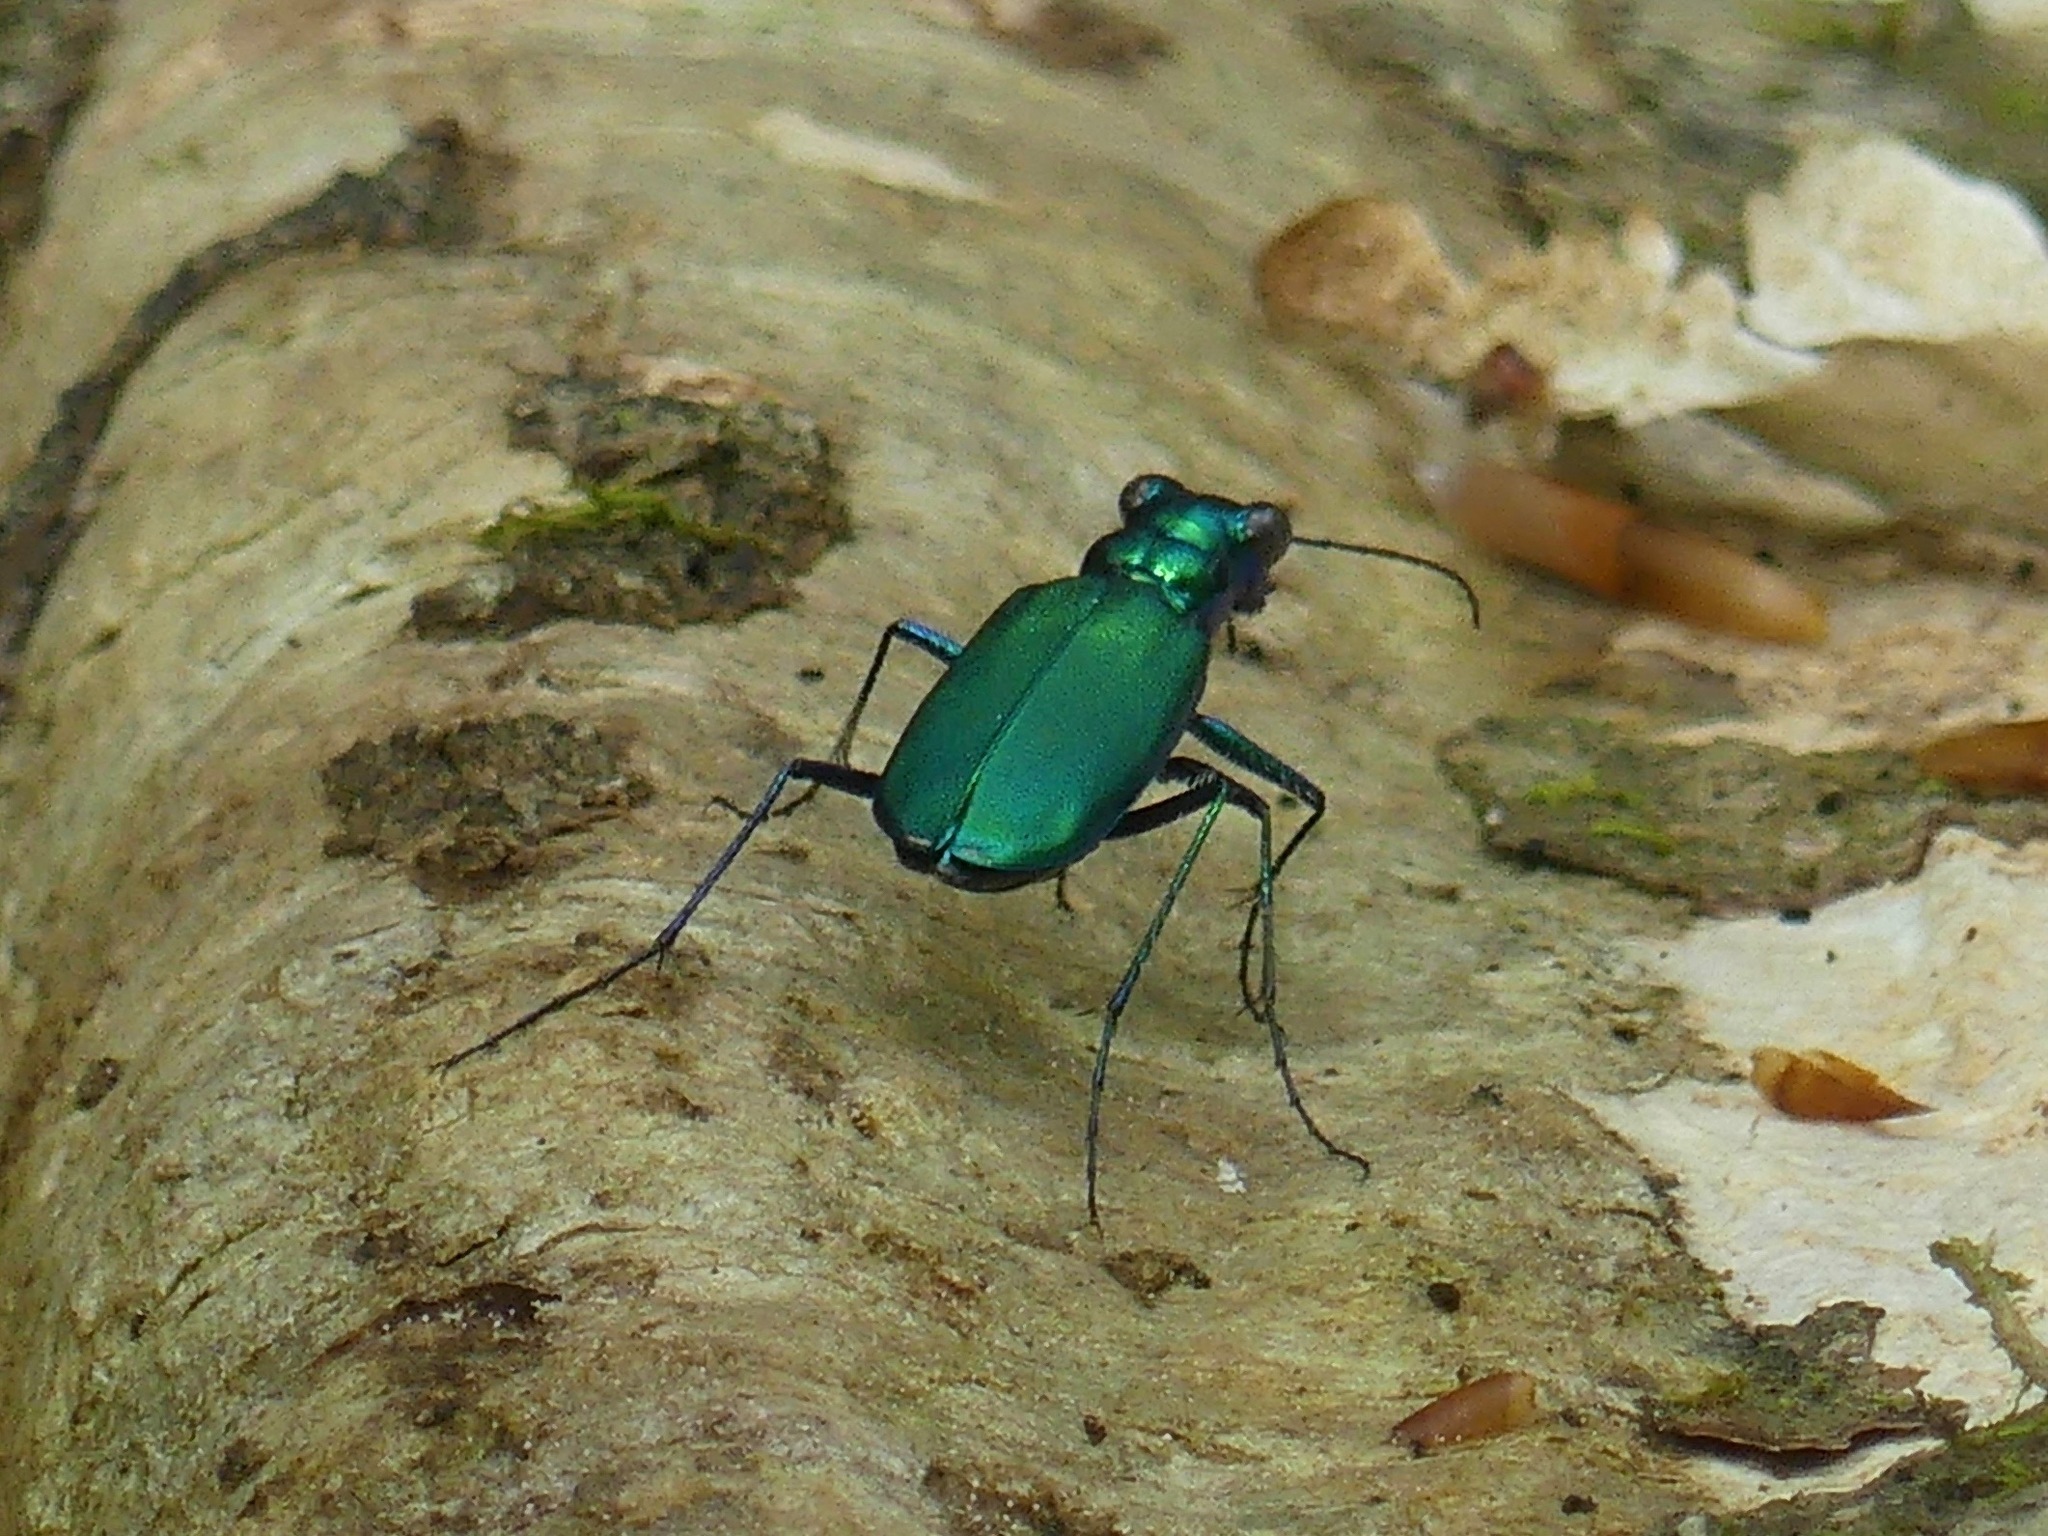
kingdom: Animalia
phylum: Arthropoda
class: Insecta
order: Coleoptera
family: Carabidae
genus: Cicindela
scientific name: Cicindela sexguttata
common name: Six-spotted tiger beetle
